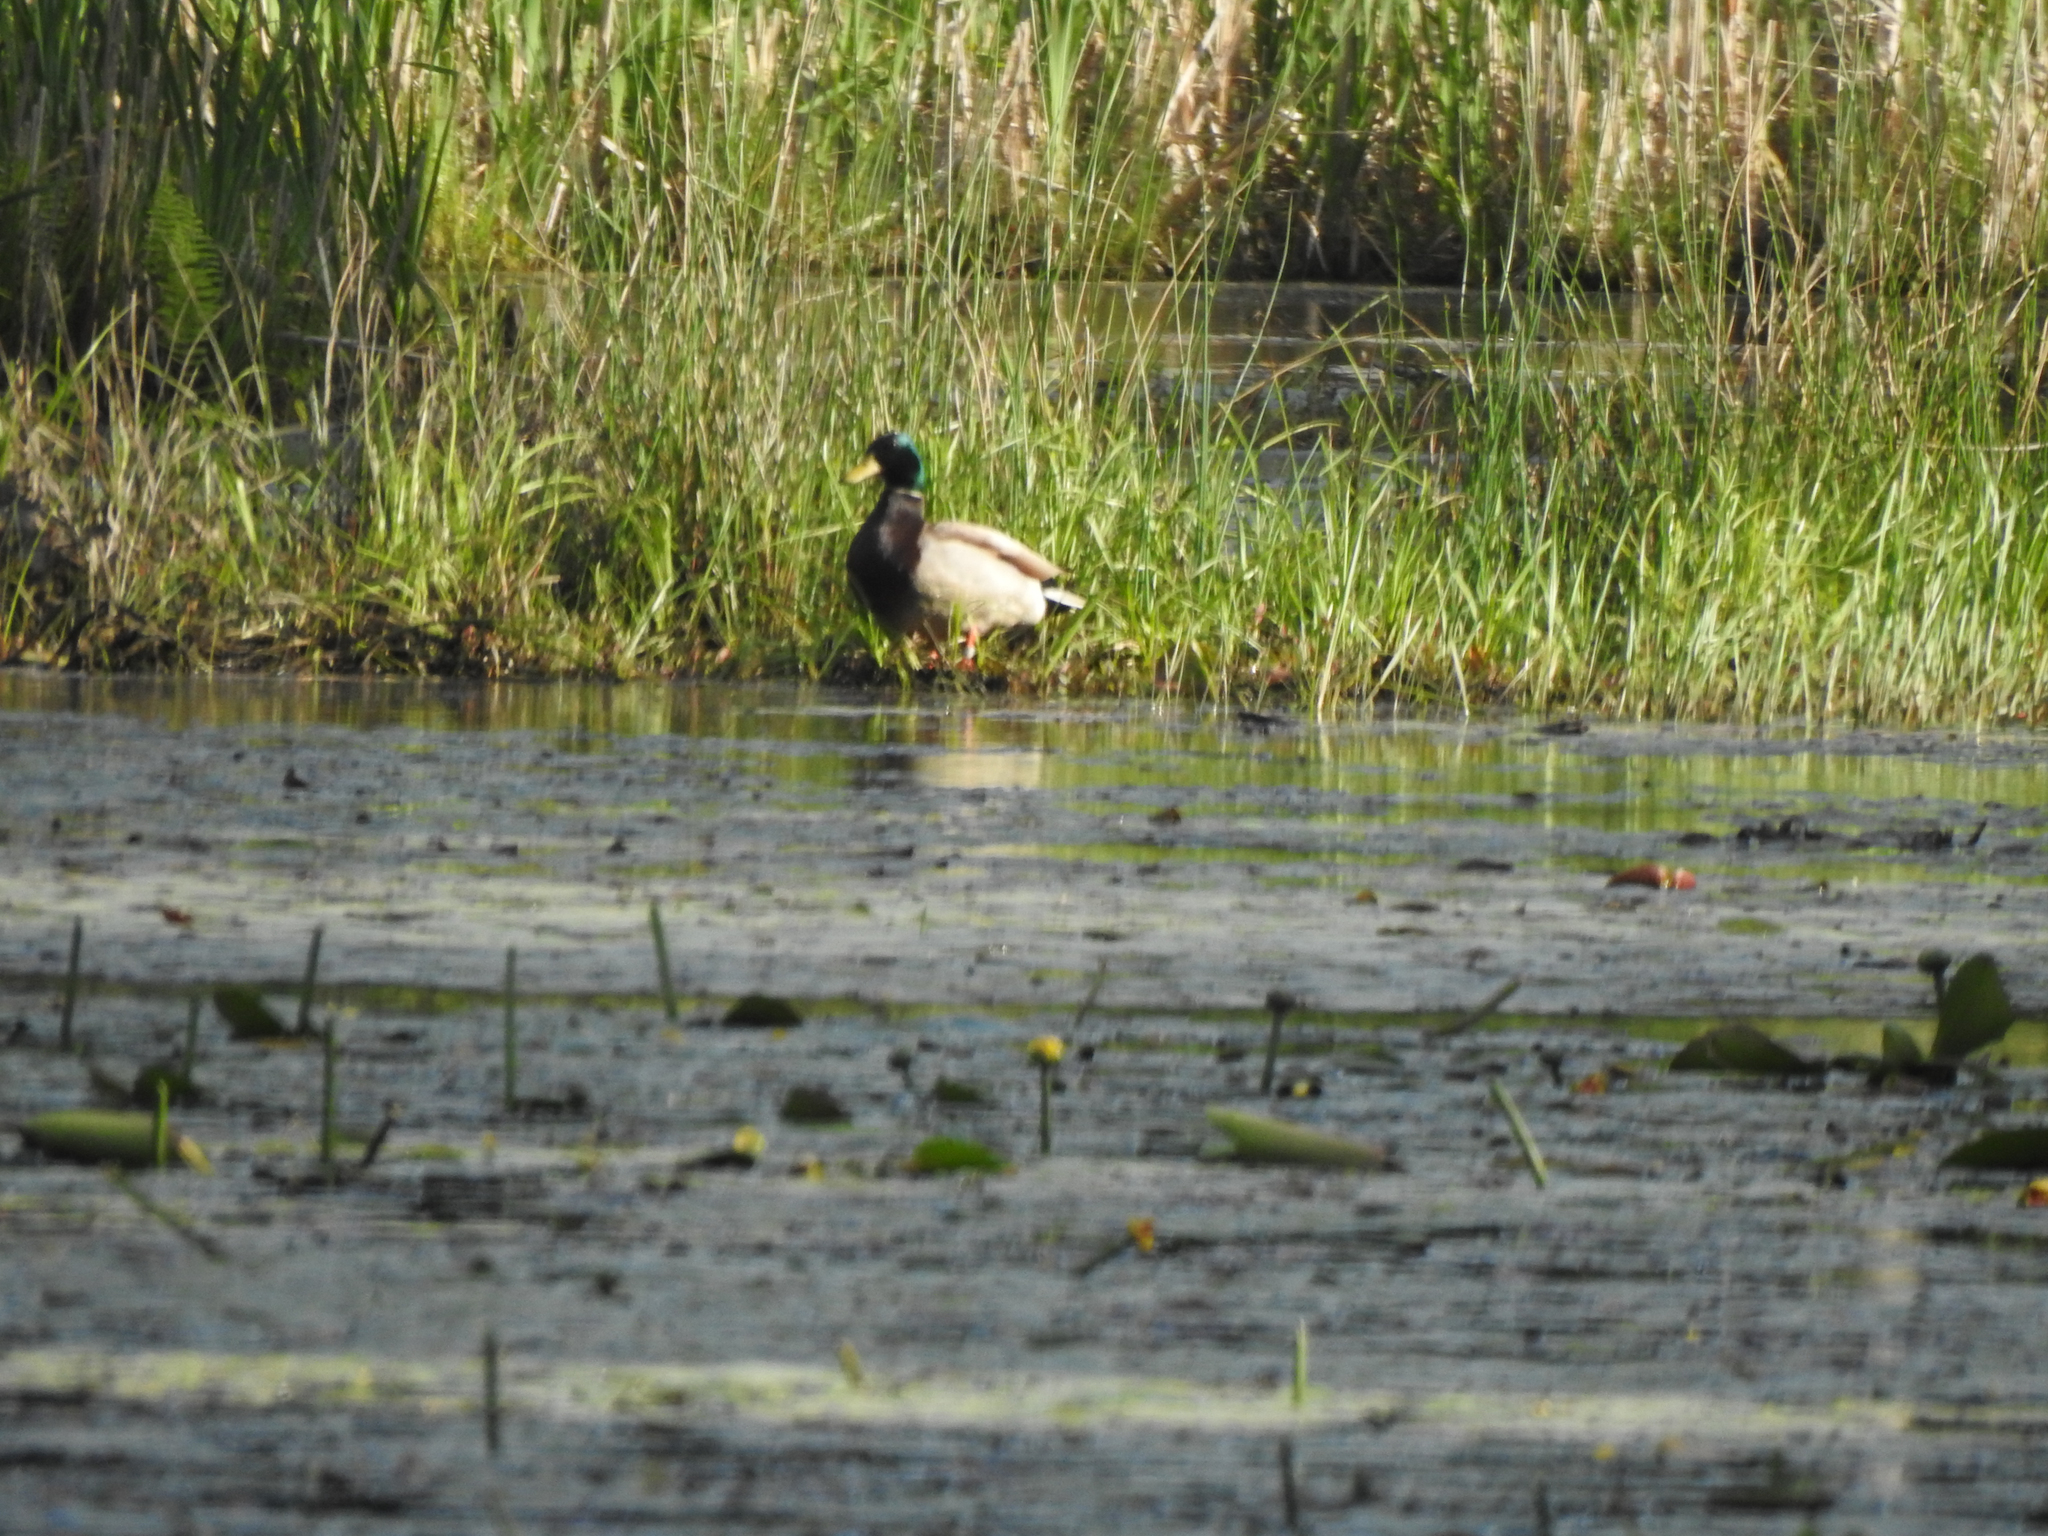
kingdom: Animalia
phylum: Chordata
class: Aves
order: Anseriformes
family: Anatidae
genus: Anas
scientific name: Anas platyrhynchos
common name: Mallard
